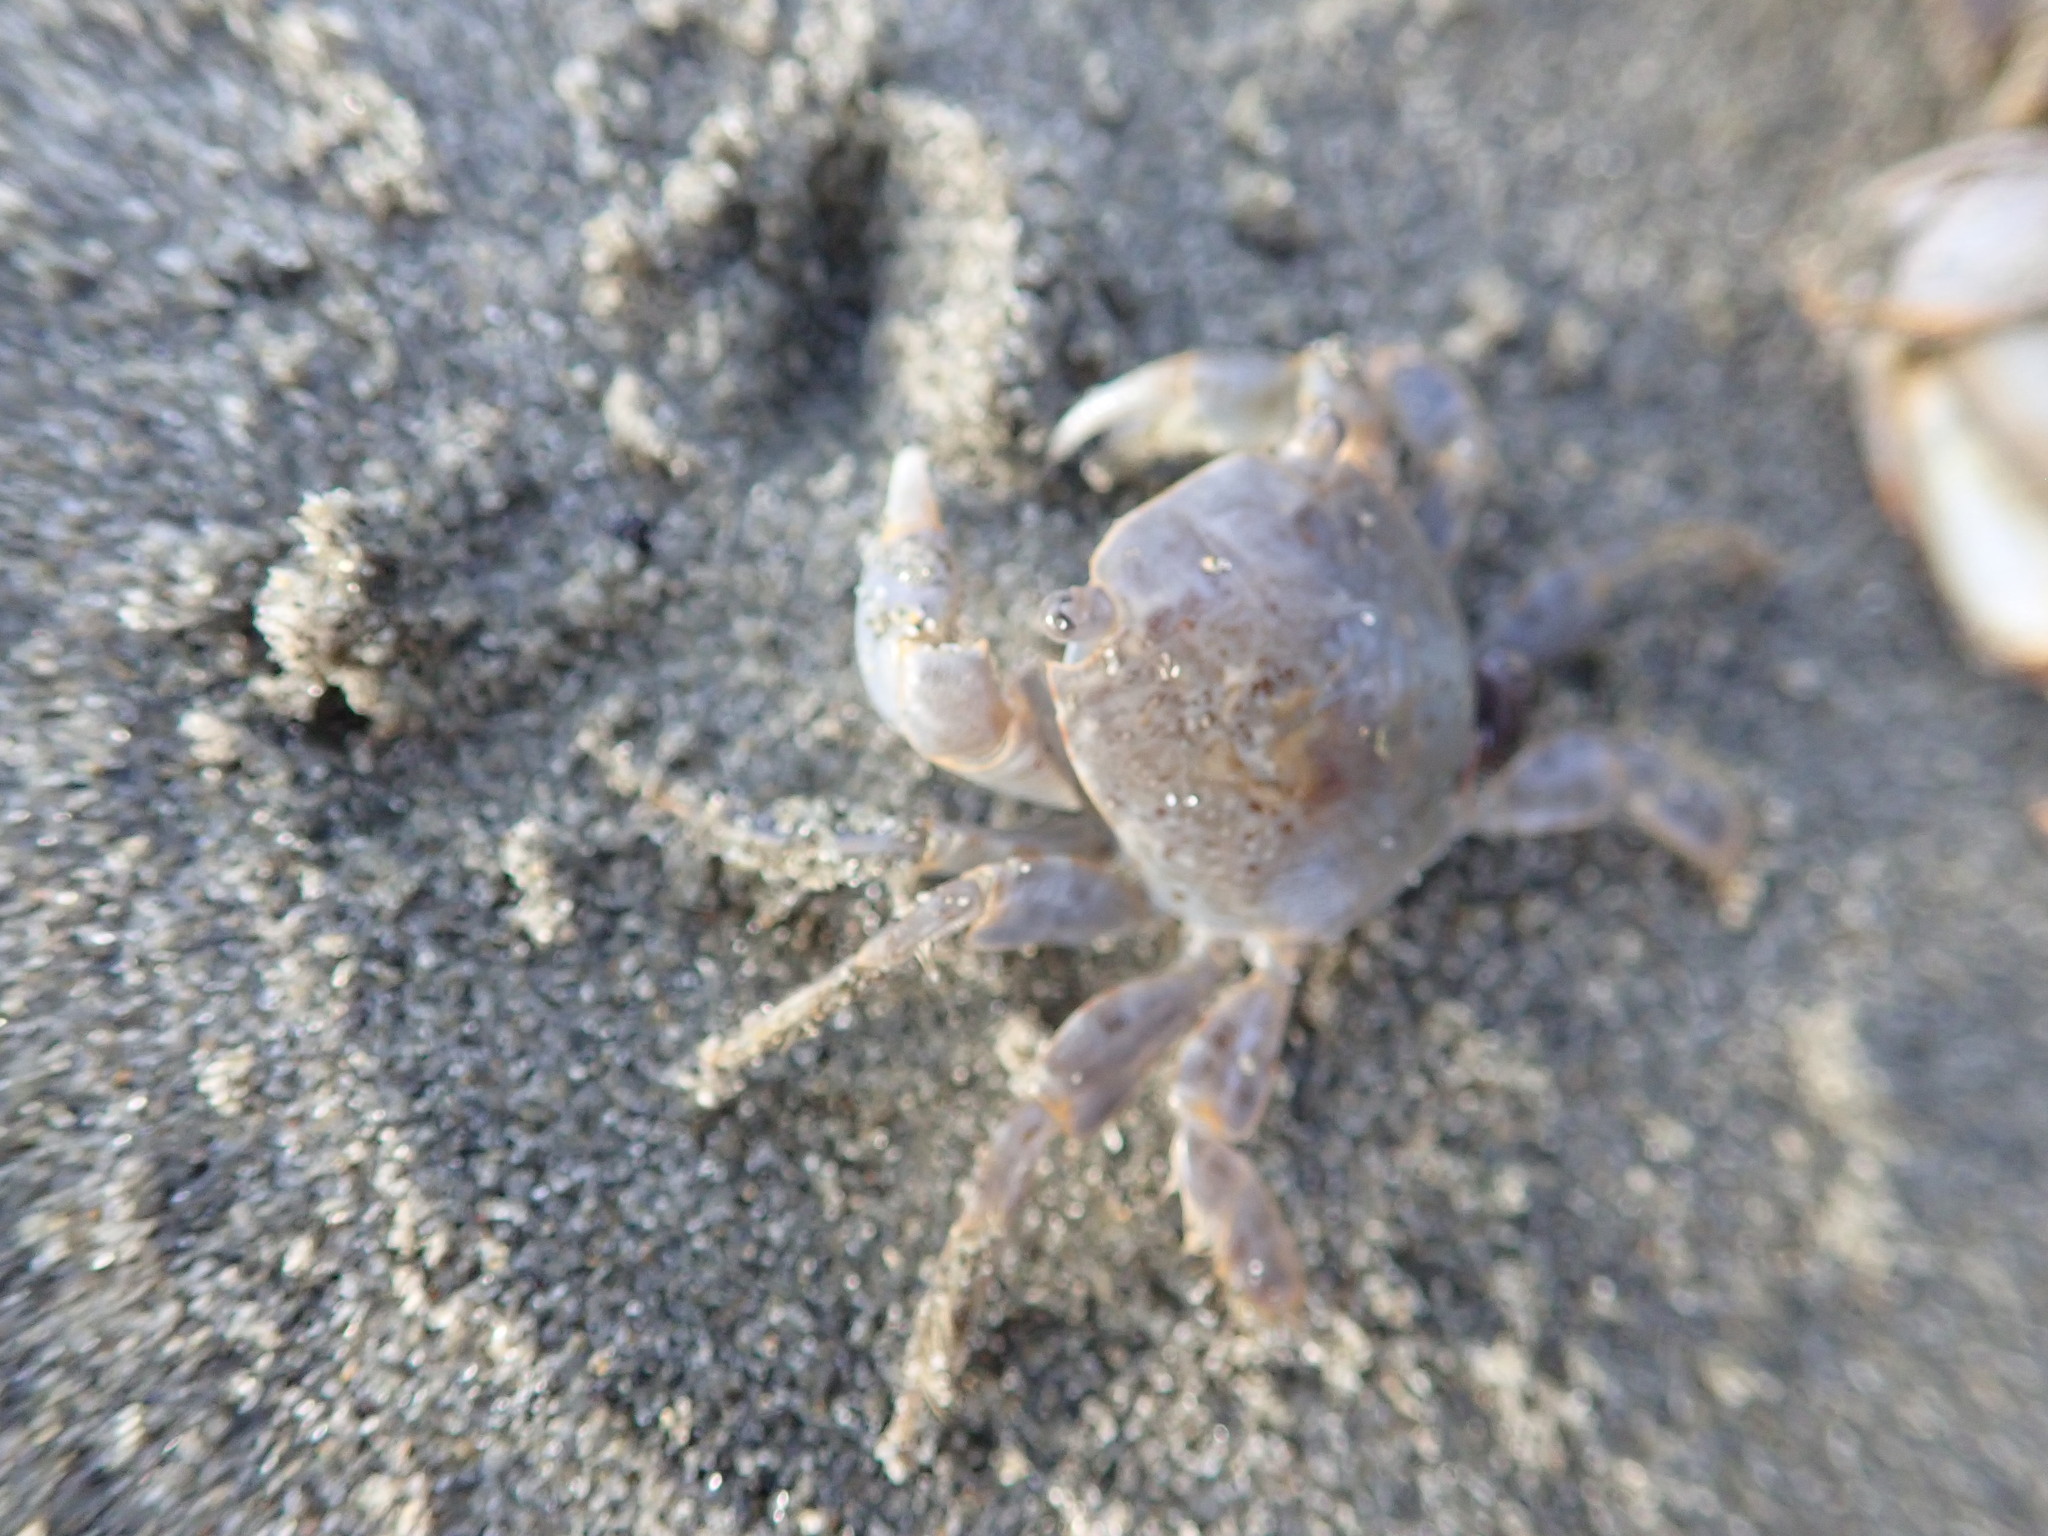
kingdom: Animalia
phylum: Arthropoda
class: Malacostraca
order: Decapoda
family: Grapsidae
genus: Planes
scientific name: Planes minutus
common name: Gulf weed crab
